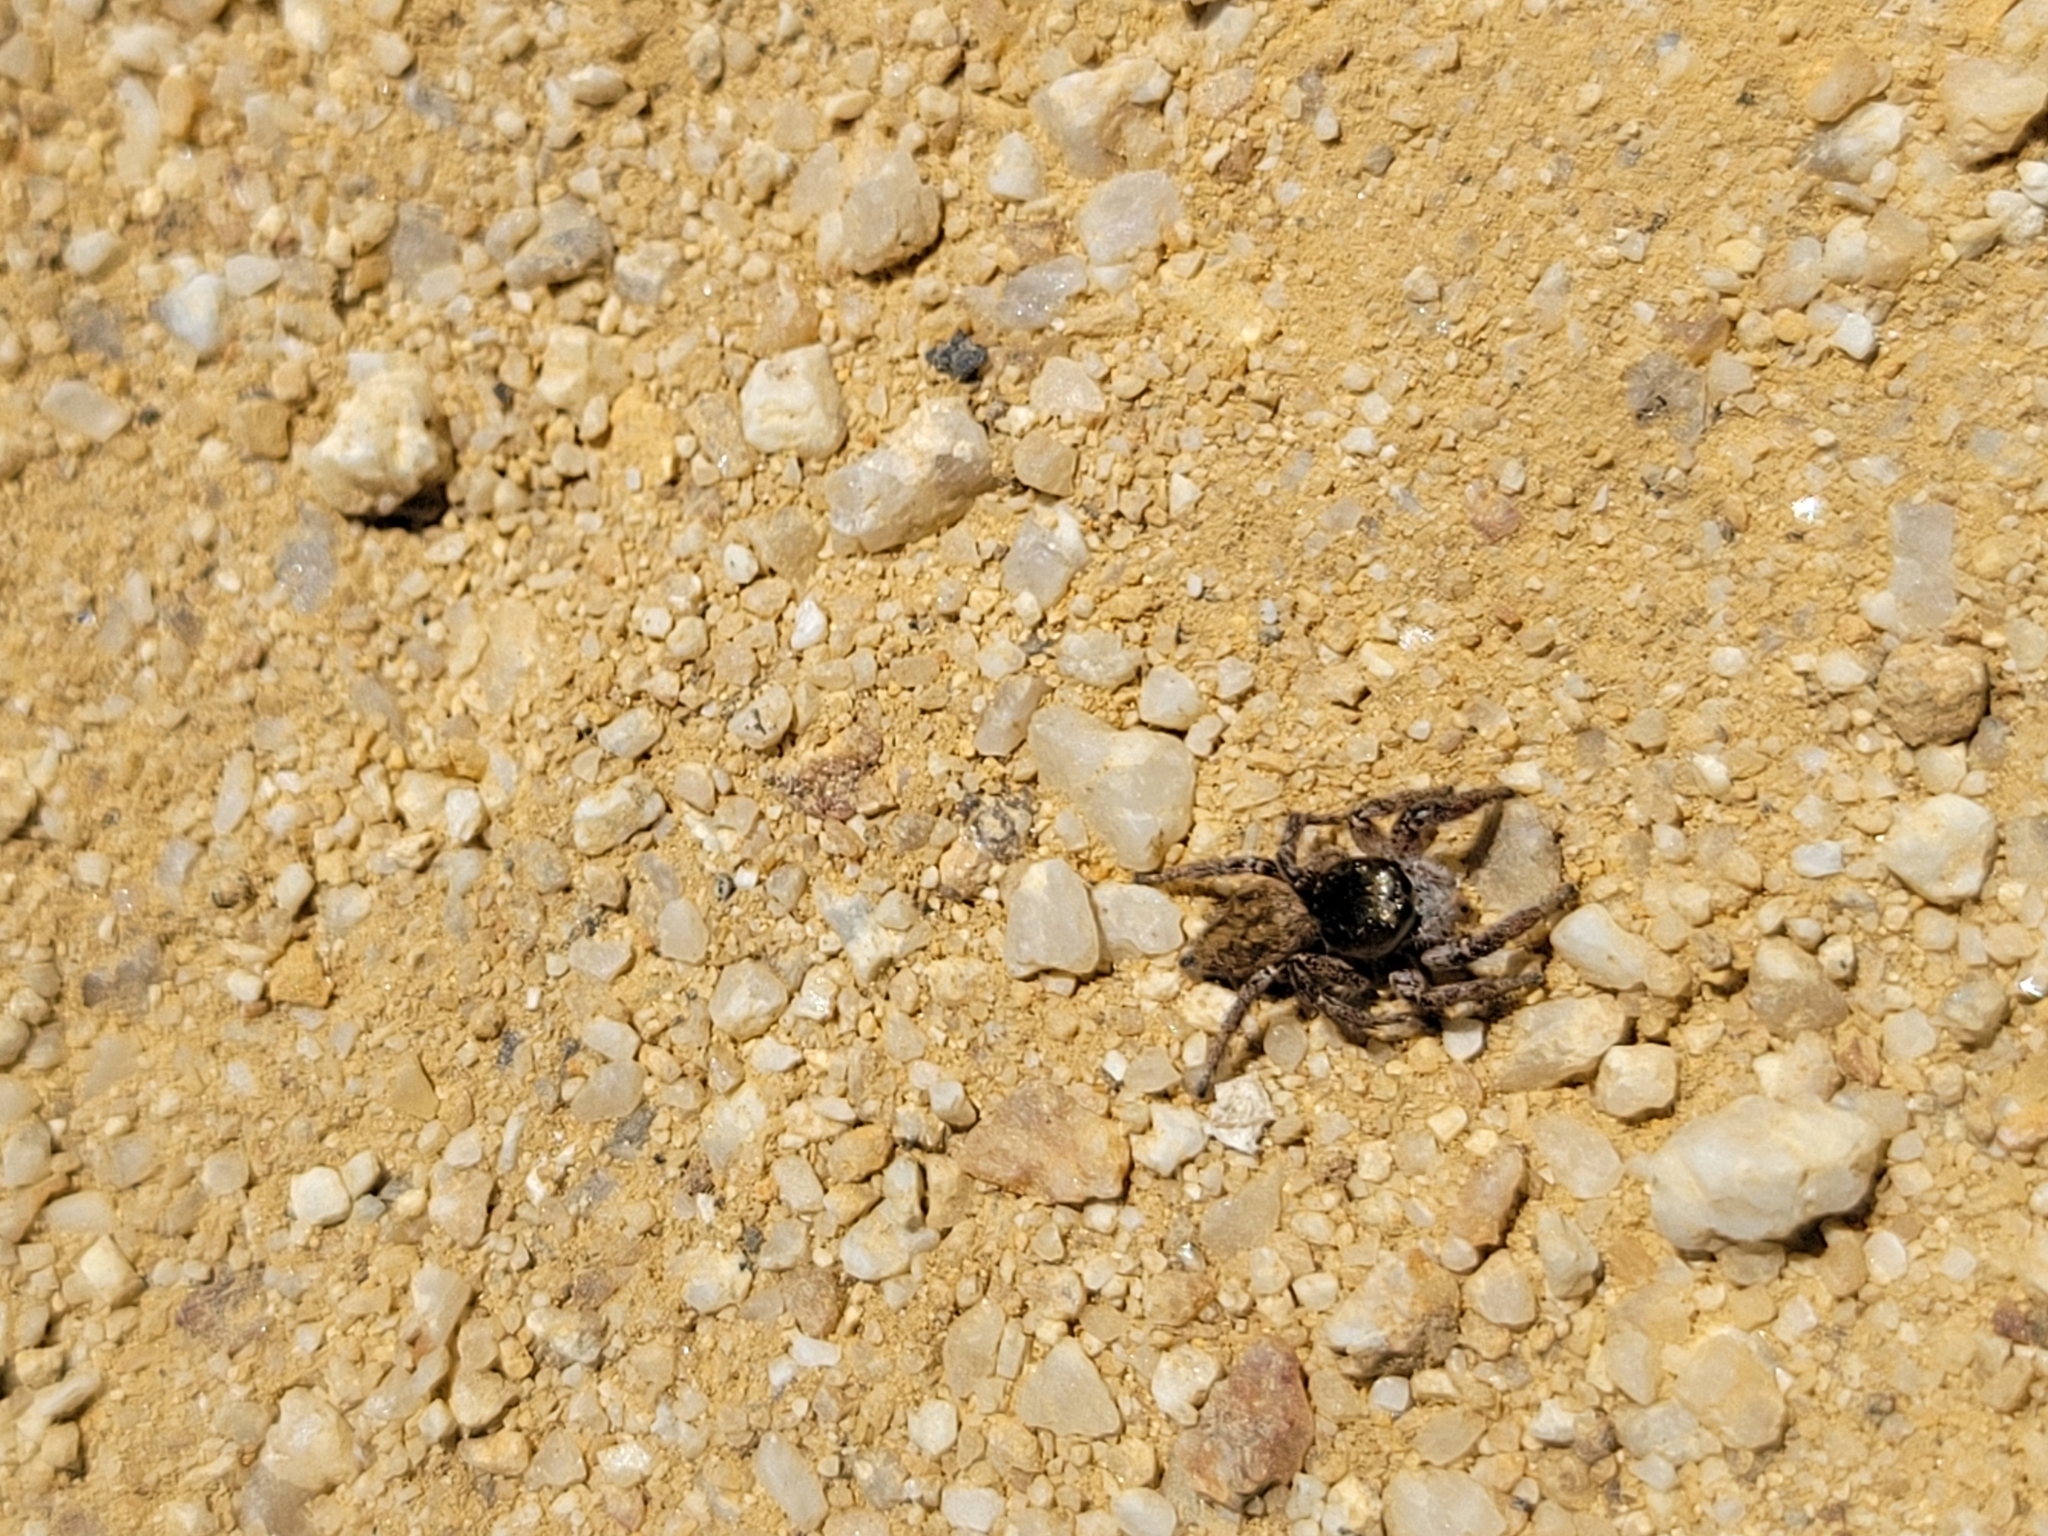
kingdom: Animalia
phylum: Arthropoda
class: Arachnida
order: Araneae
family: Salticidae
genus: Habronattus
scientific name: Habronattus pyrrithrix
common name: Jumping spider
